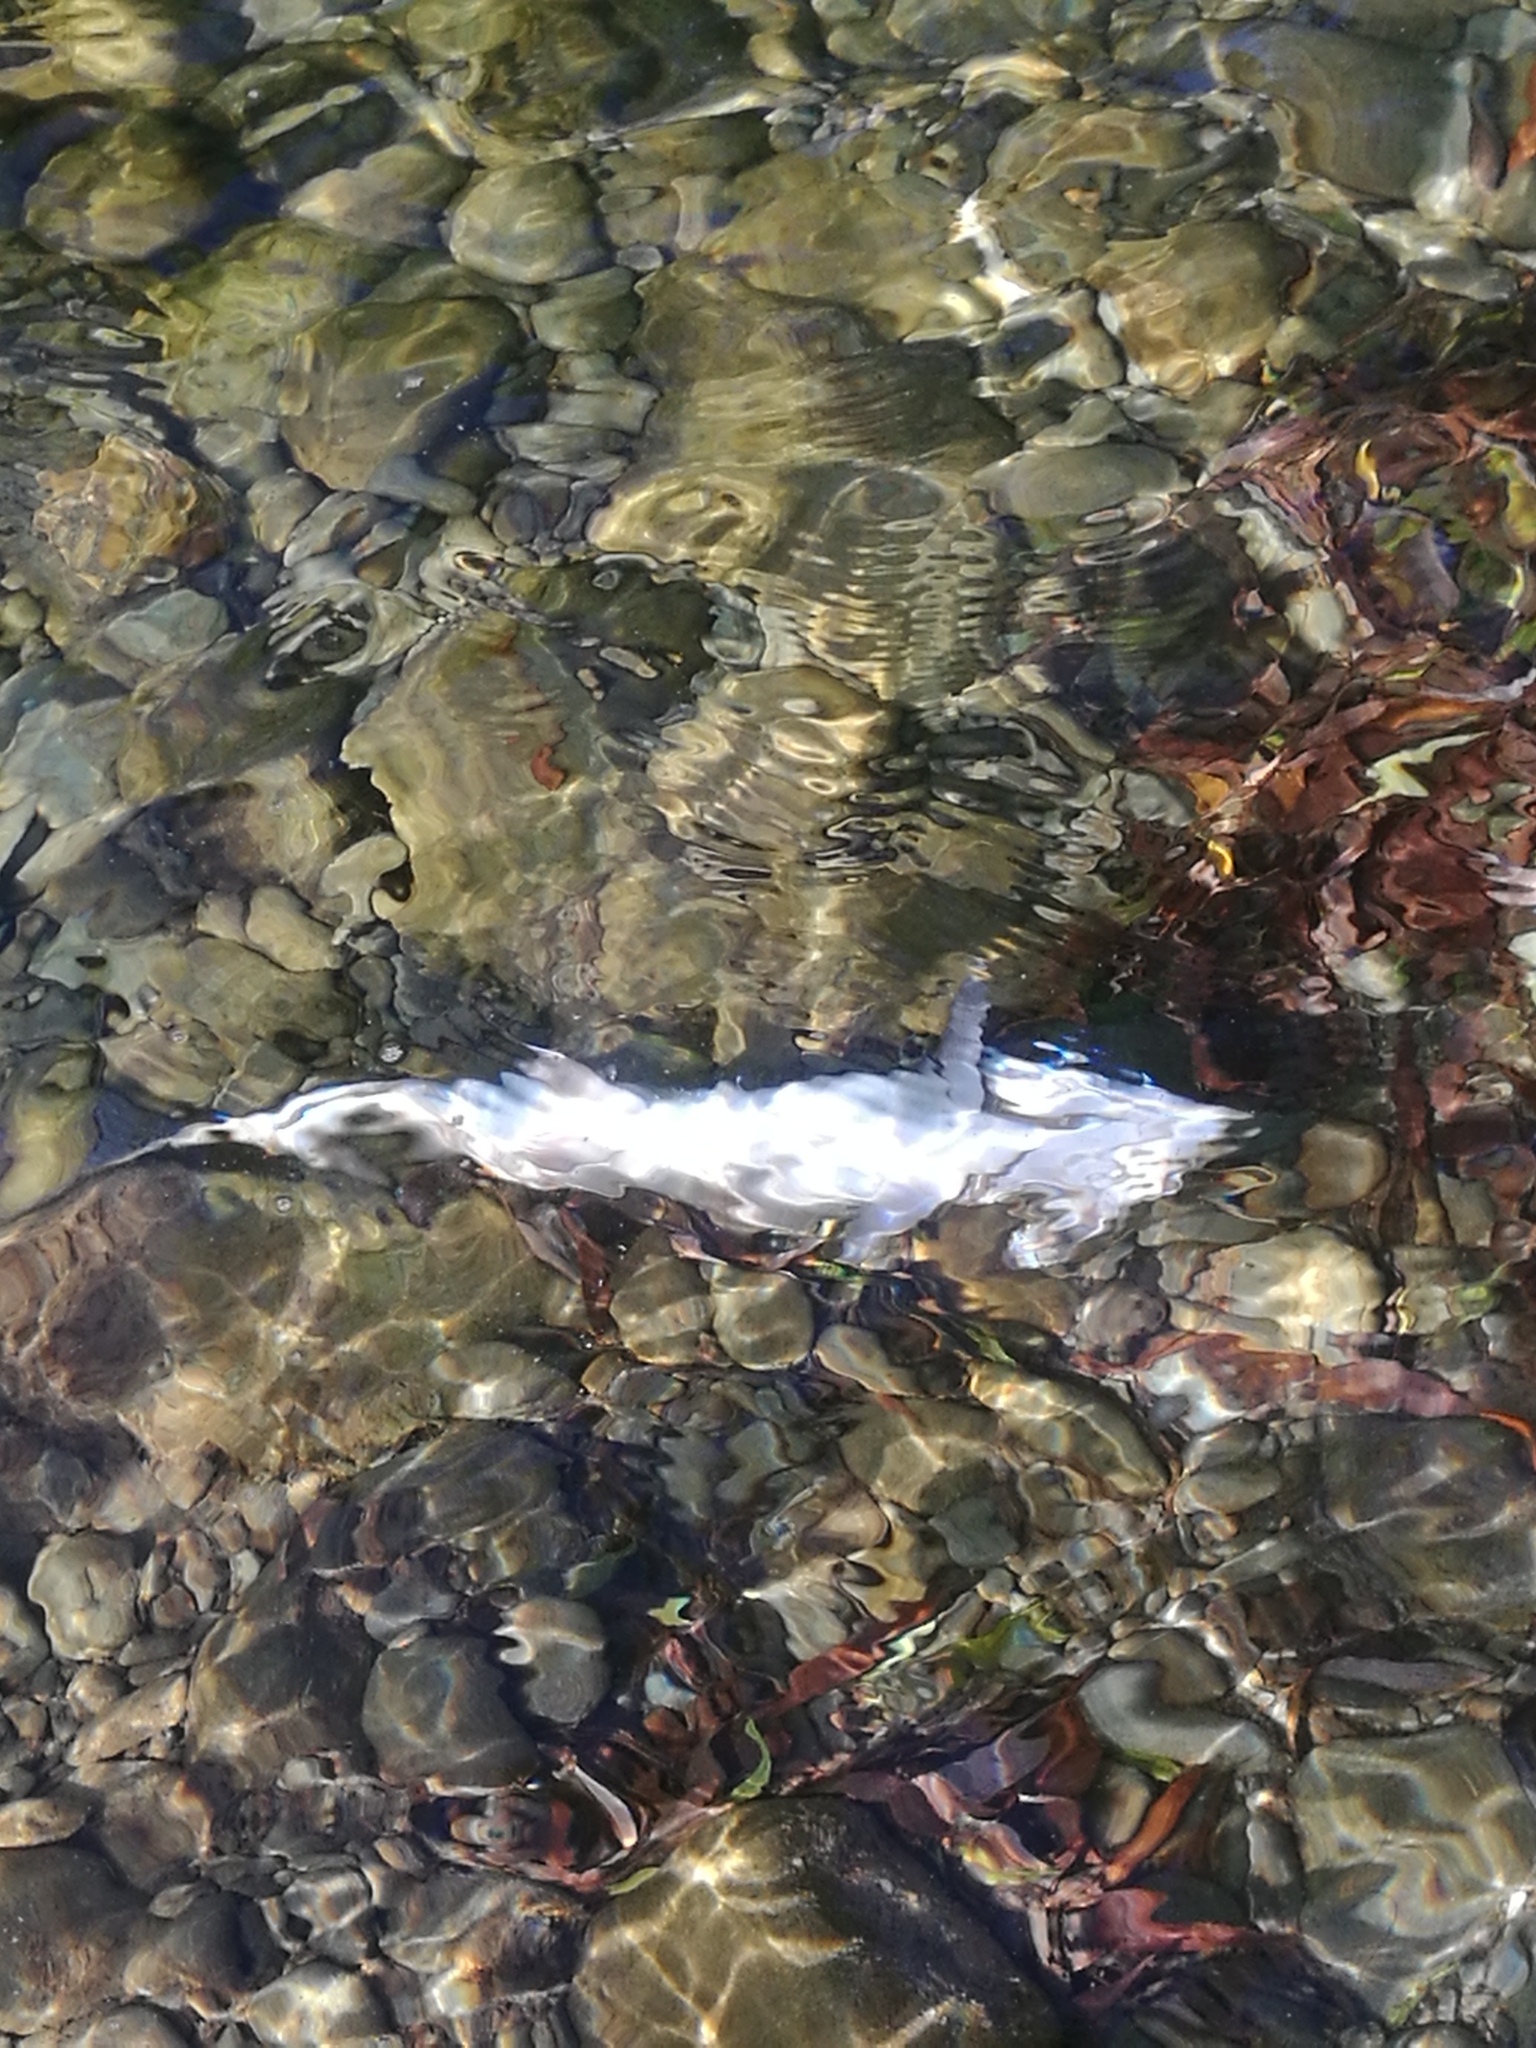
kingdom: Animalia
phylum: Chordata
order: Salmoniformes
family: Salmonidae
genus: Oncorhynchus
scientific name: Oncorhynchus mykiss
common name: Rainbow trout
